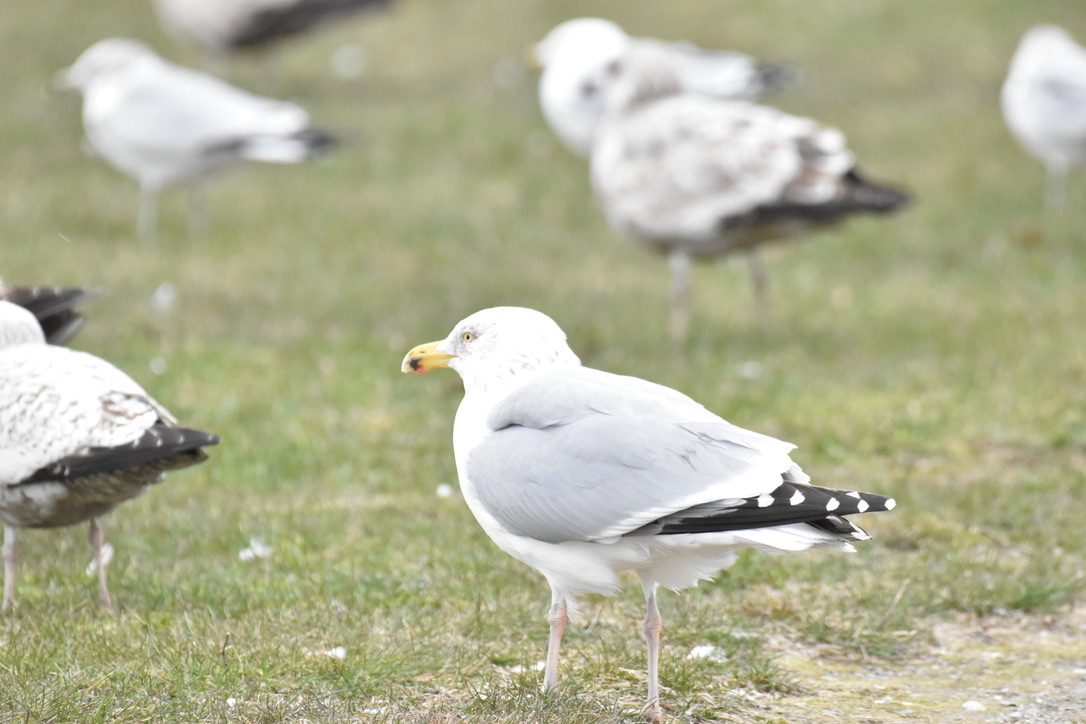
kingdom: Animalia
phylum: Chordata
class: Aves
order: Charadriiformes
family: Laridae
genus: Larus
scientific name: Larus argentatus
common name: Herring gull
